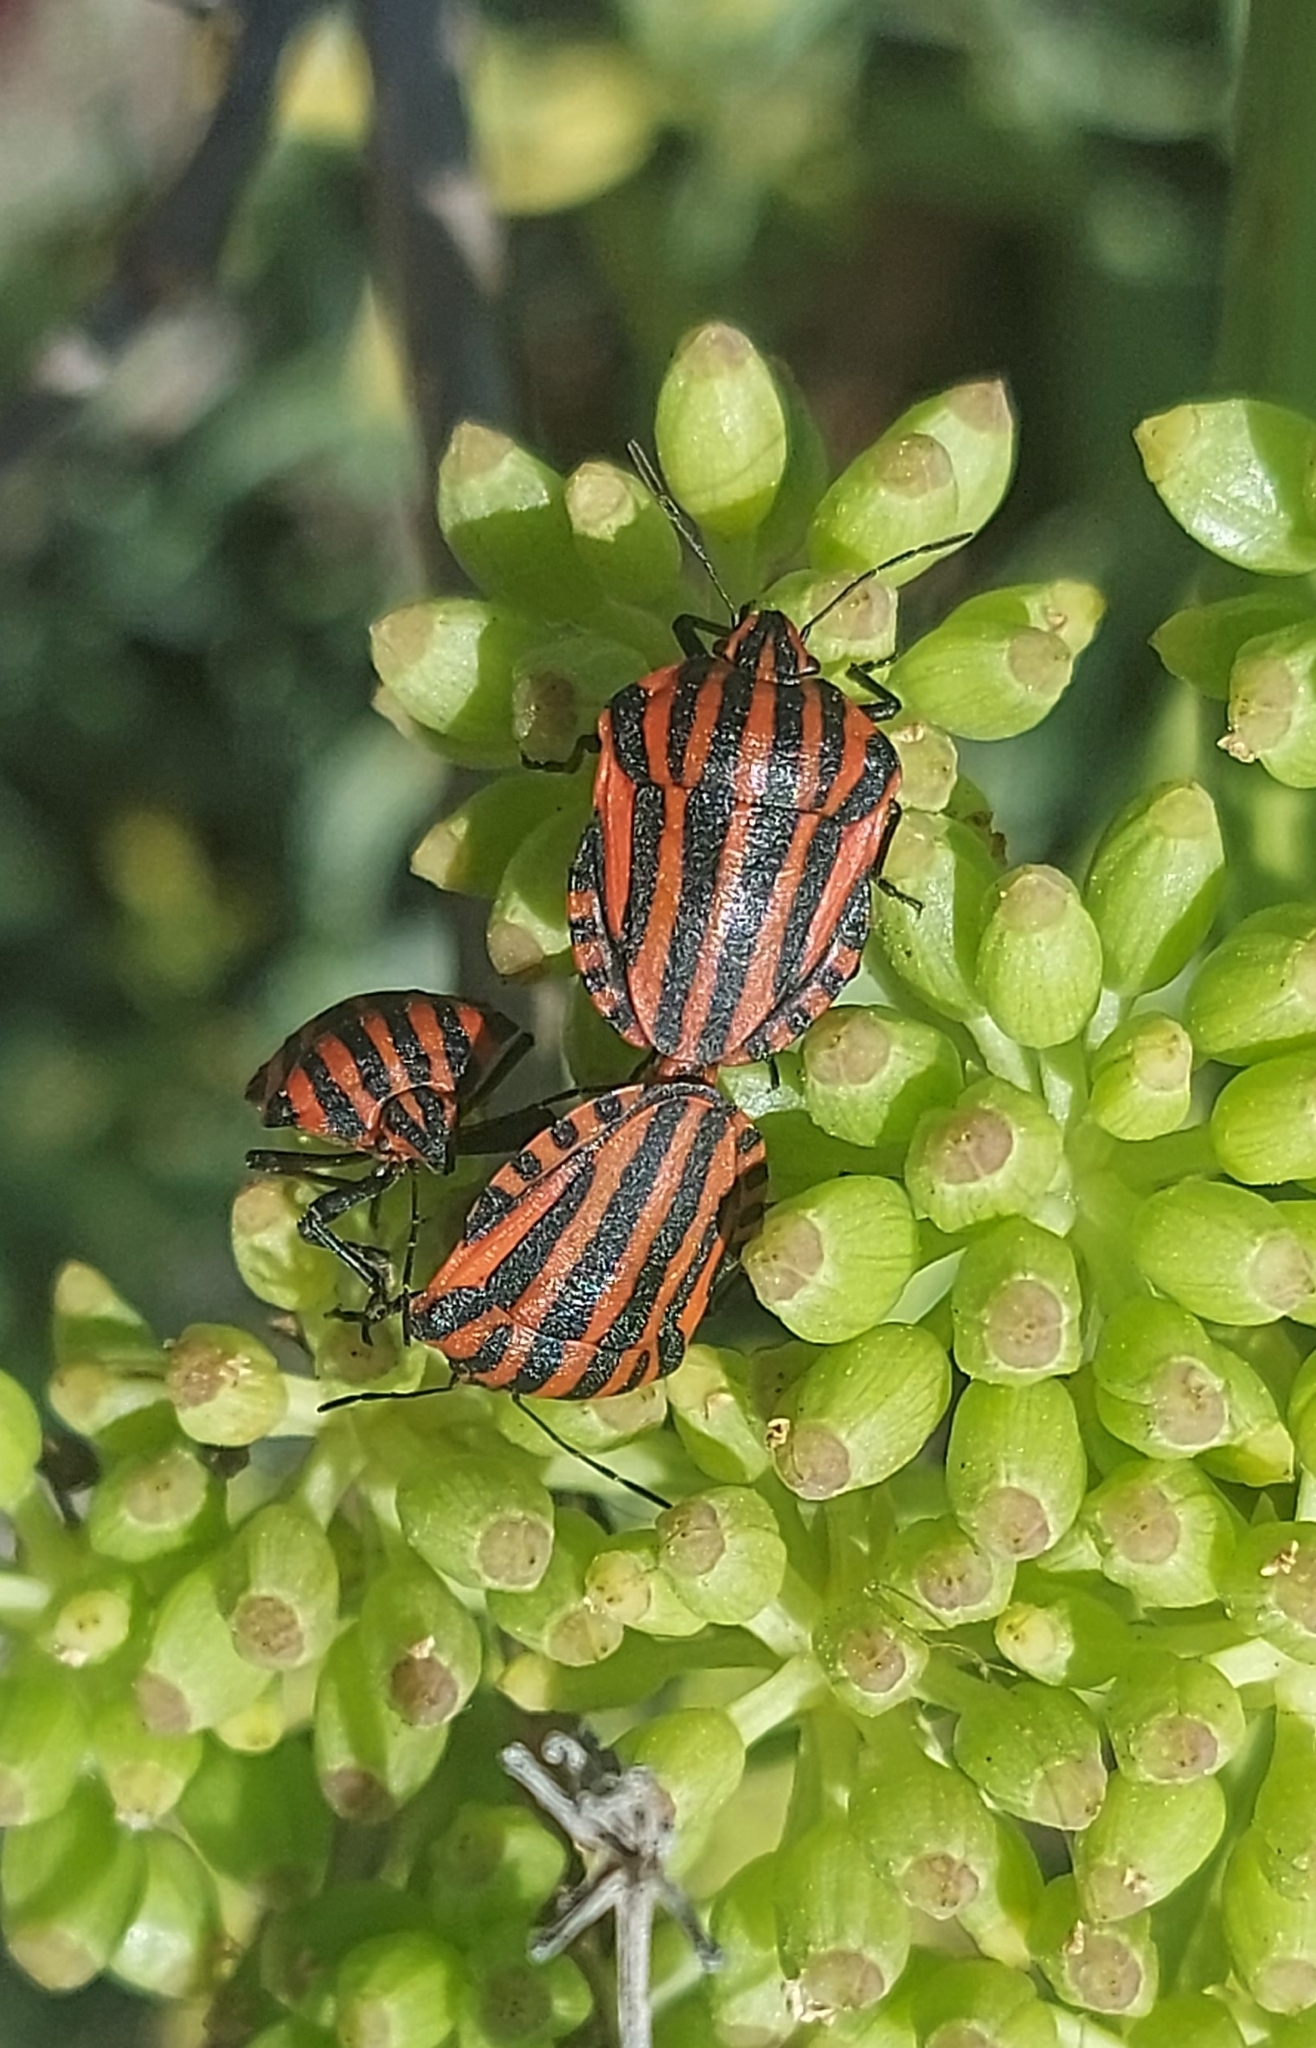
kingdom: Animalia
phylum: Arthropoda
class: Insecta
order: Hemiptera
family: Pentatomidae
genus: Graphosoma
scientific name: Graphosoma italicum
